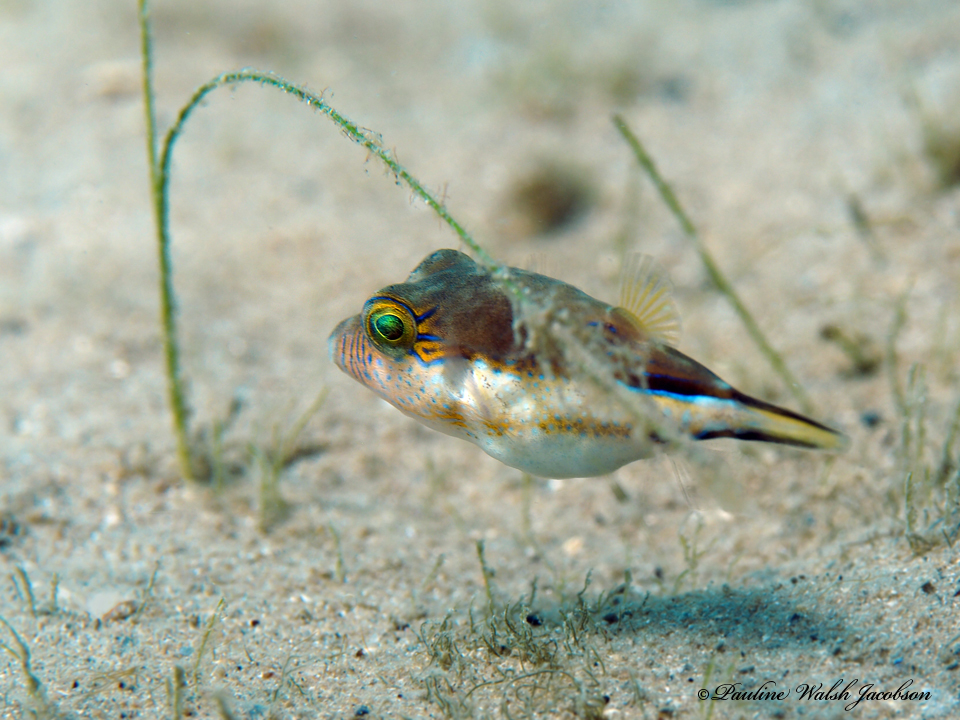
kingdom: Animalia
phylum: Chordata
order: Tetraodontiformes
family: Tetraodontidae
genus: Canthigaster
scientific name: Canthigaster rostrata
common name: Caribbean sharpnose-puffer
